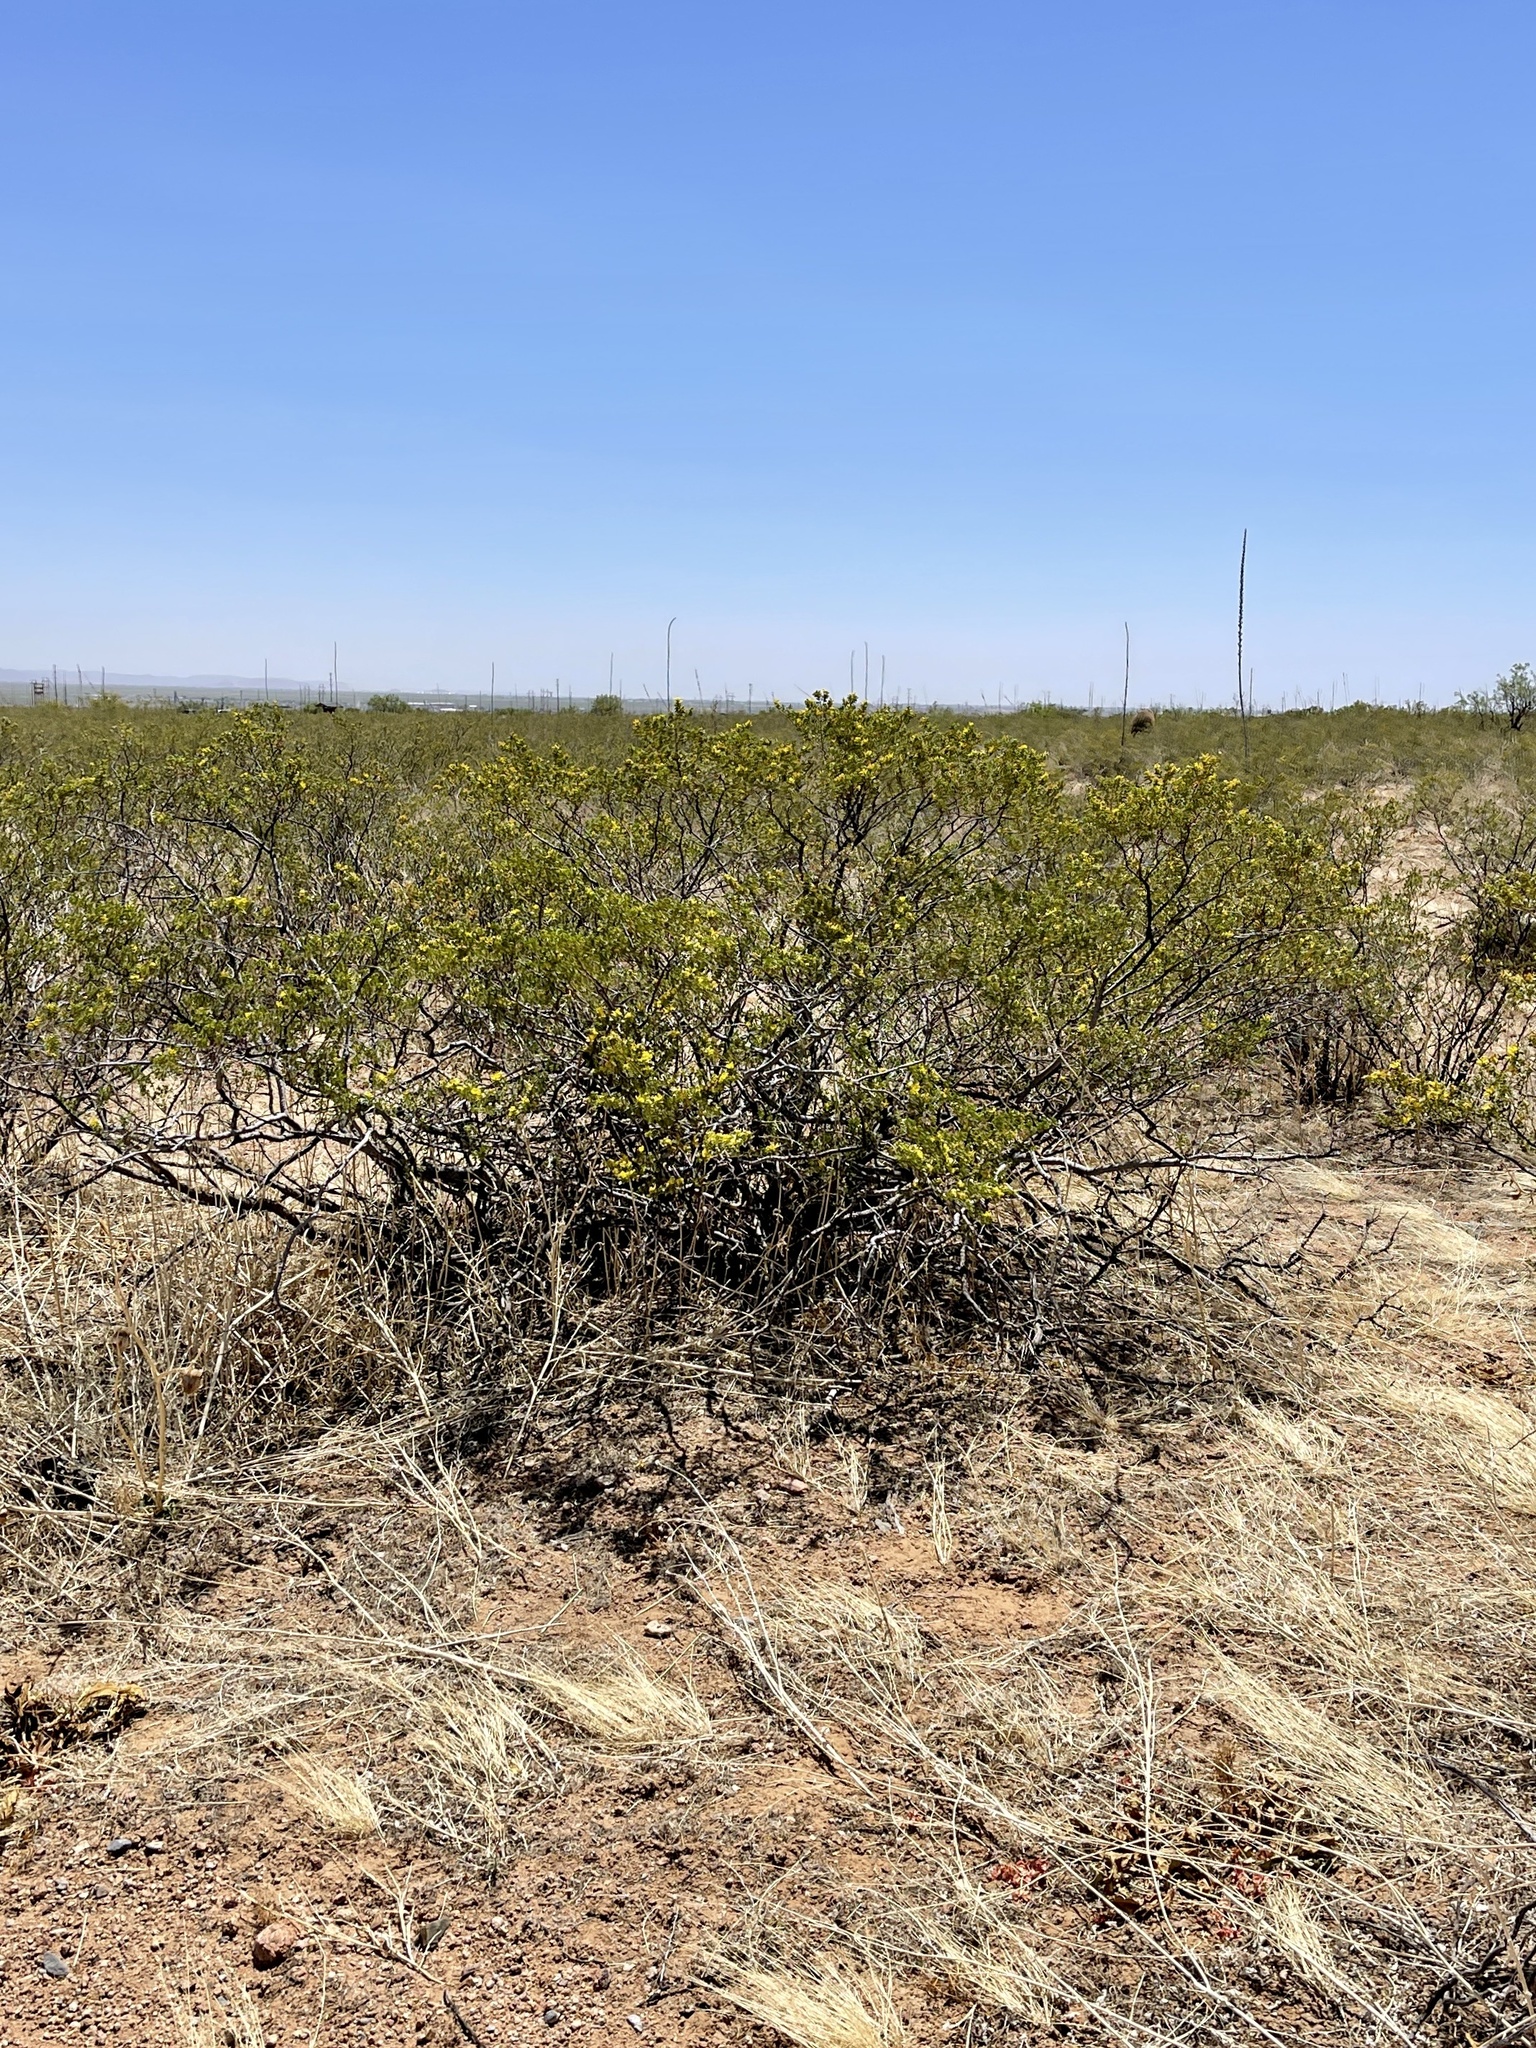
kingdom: Plantae
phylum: Tracheophyta
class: Magnoliopsida
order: Zygophyllales
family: Zygophyllaceae
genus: Larrea
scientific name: Larrea tridentata
